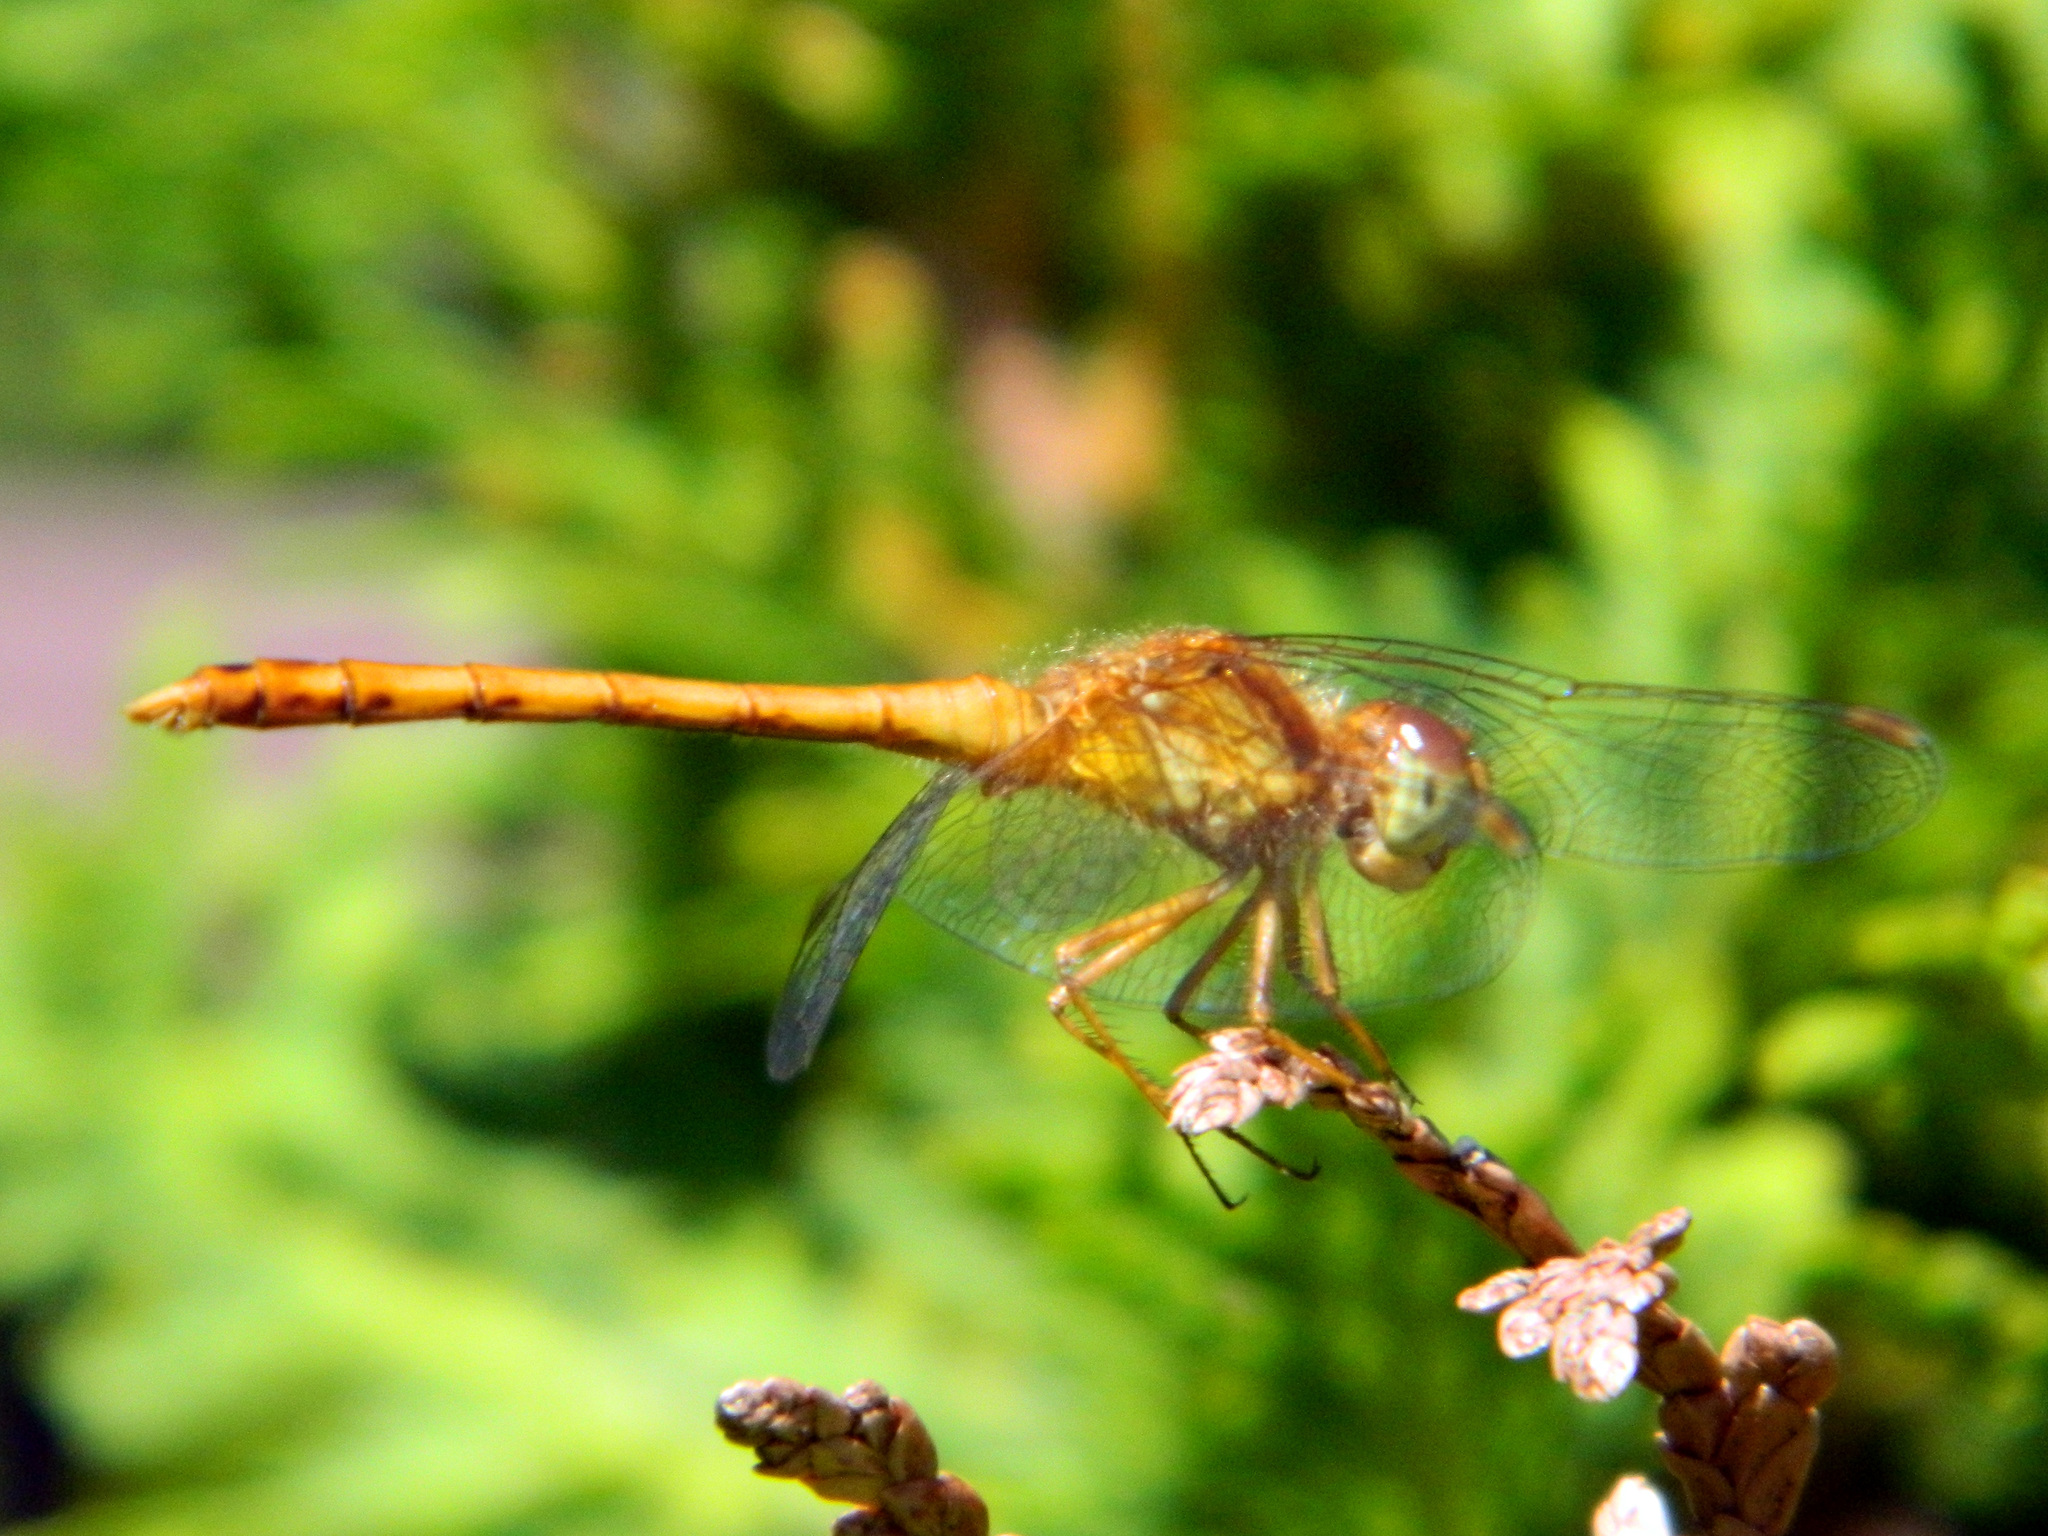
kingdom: Animalia
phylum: Arthropoda
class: Insecta
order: Odonata
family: Libellulidae
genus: Sympetrum
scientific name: Sympetrum vicinum
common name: Autumn meadowhawk
